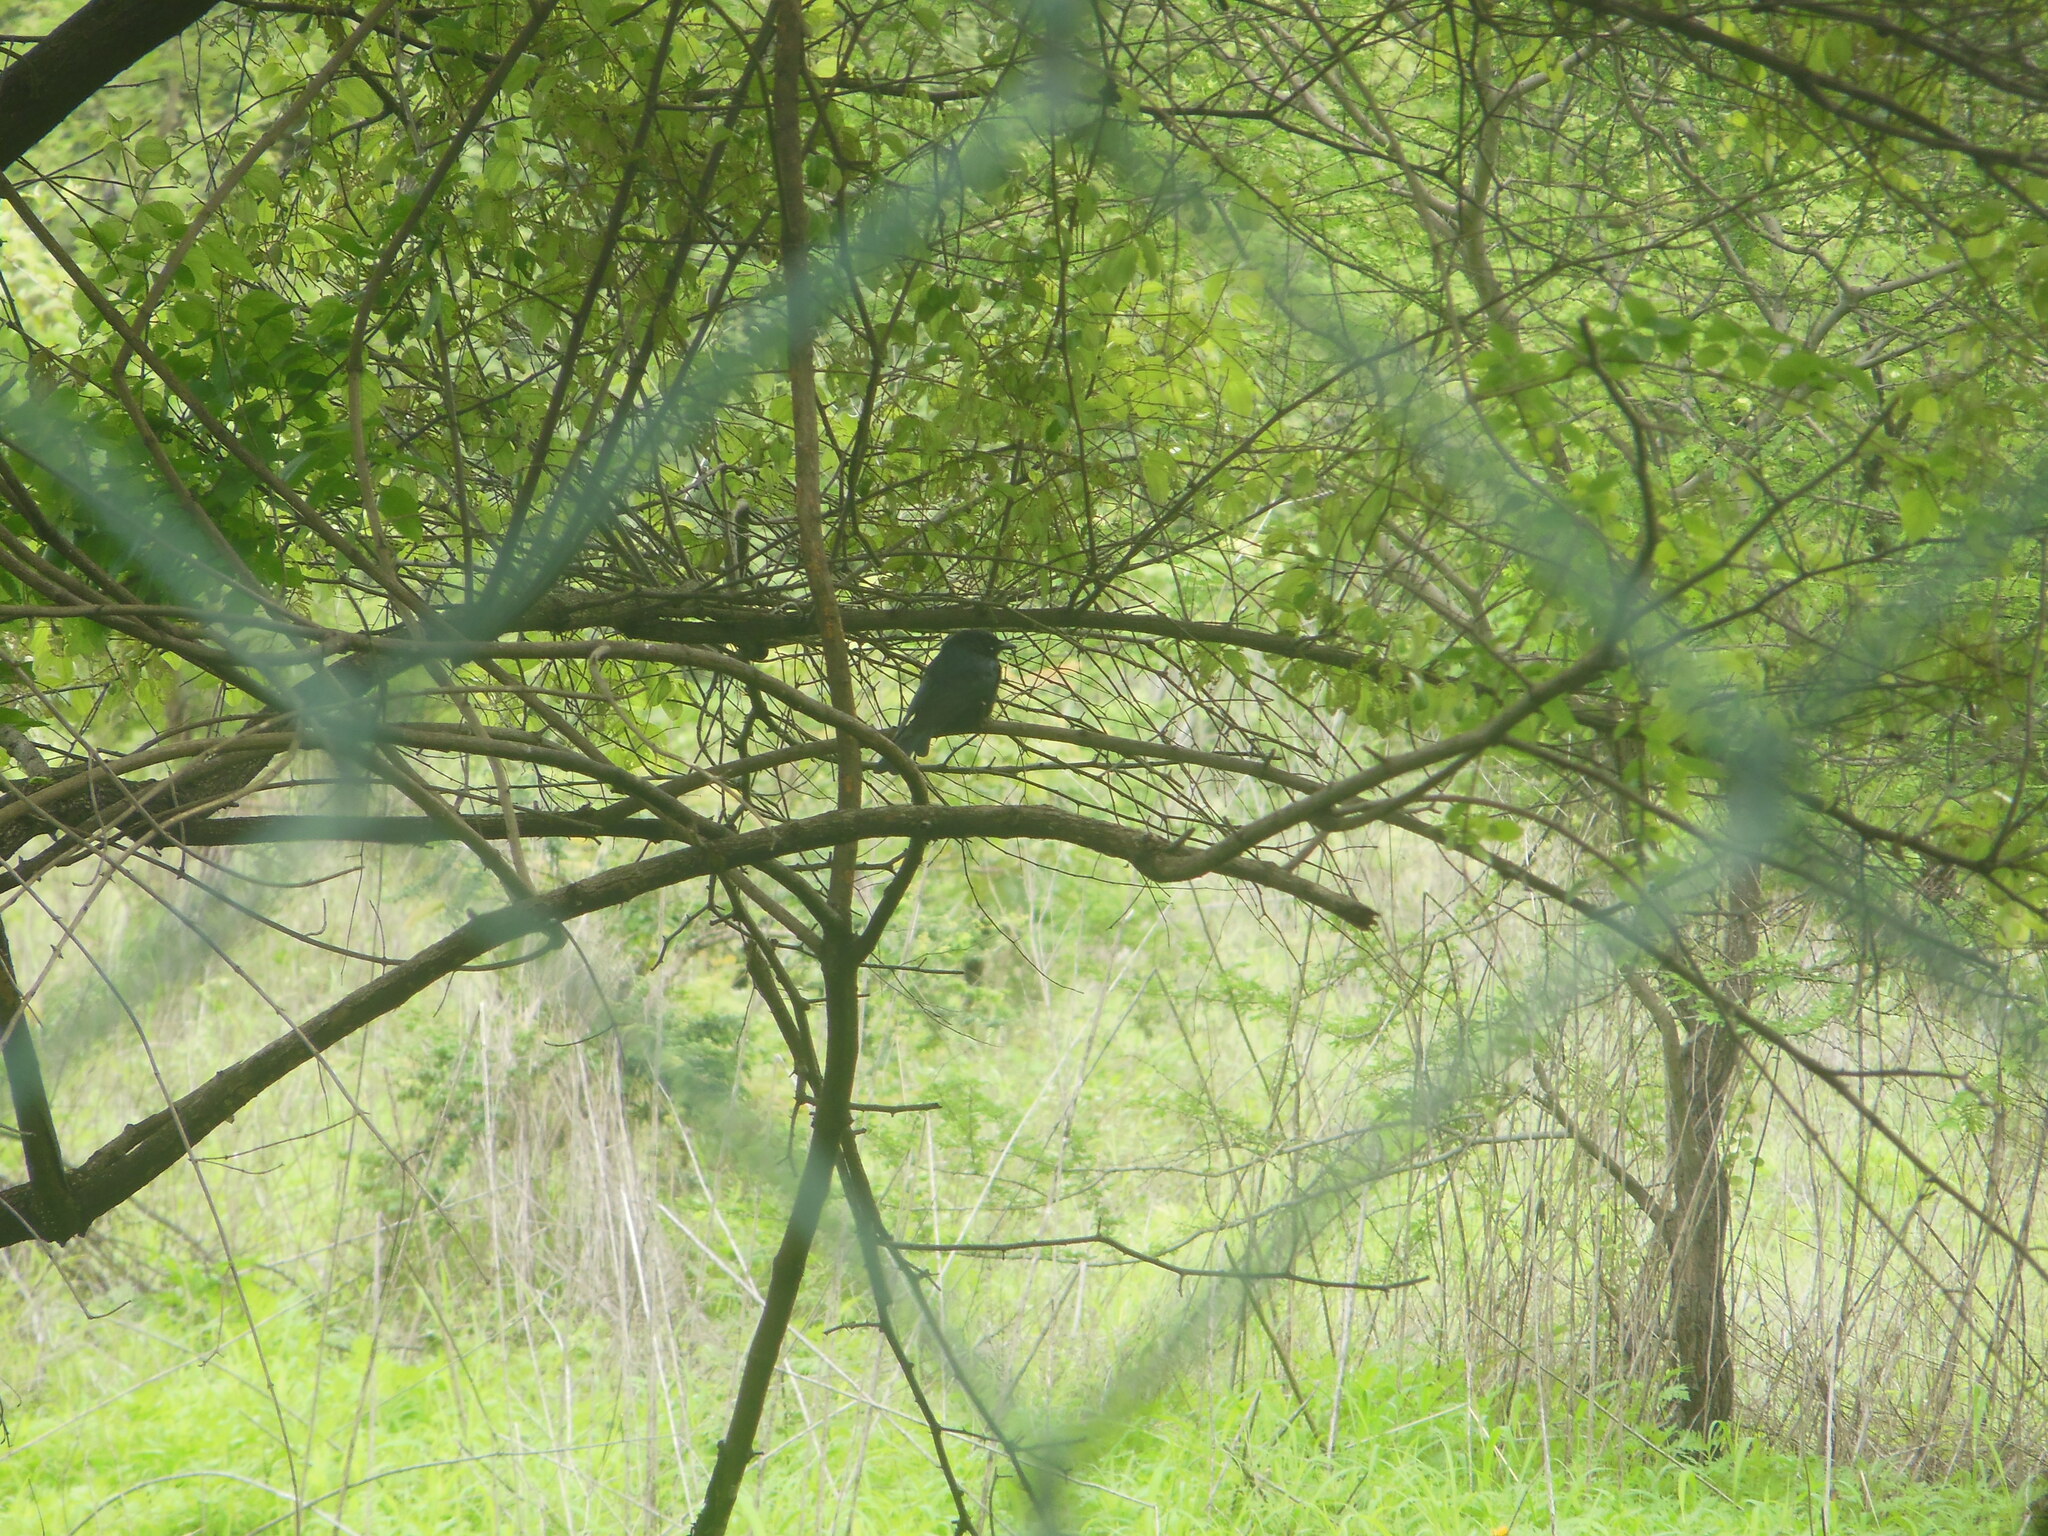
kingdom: Animalia
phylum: Chordata
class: Aves
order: Passeriformes
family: Dicruridae
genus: Dicrurus
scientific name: Dicrurus macrocercus
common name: Black drongo
